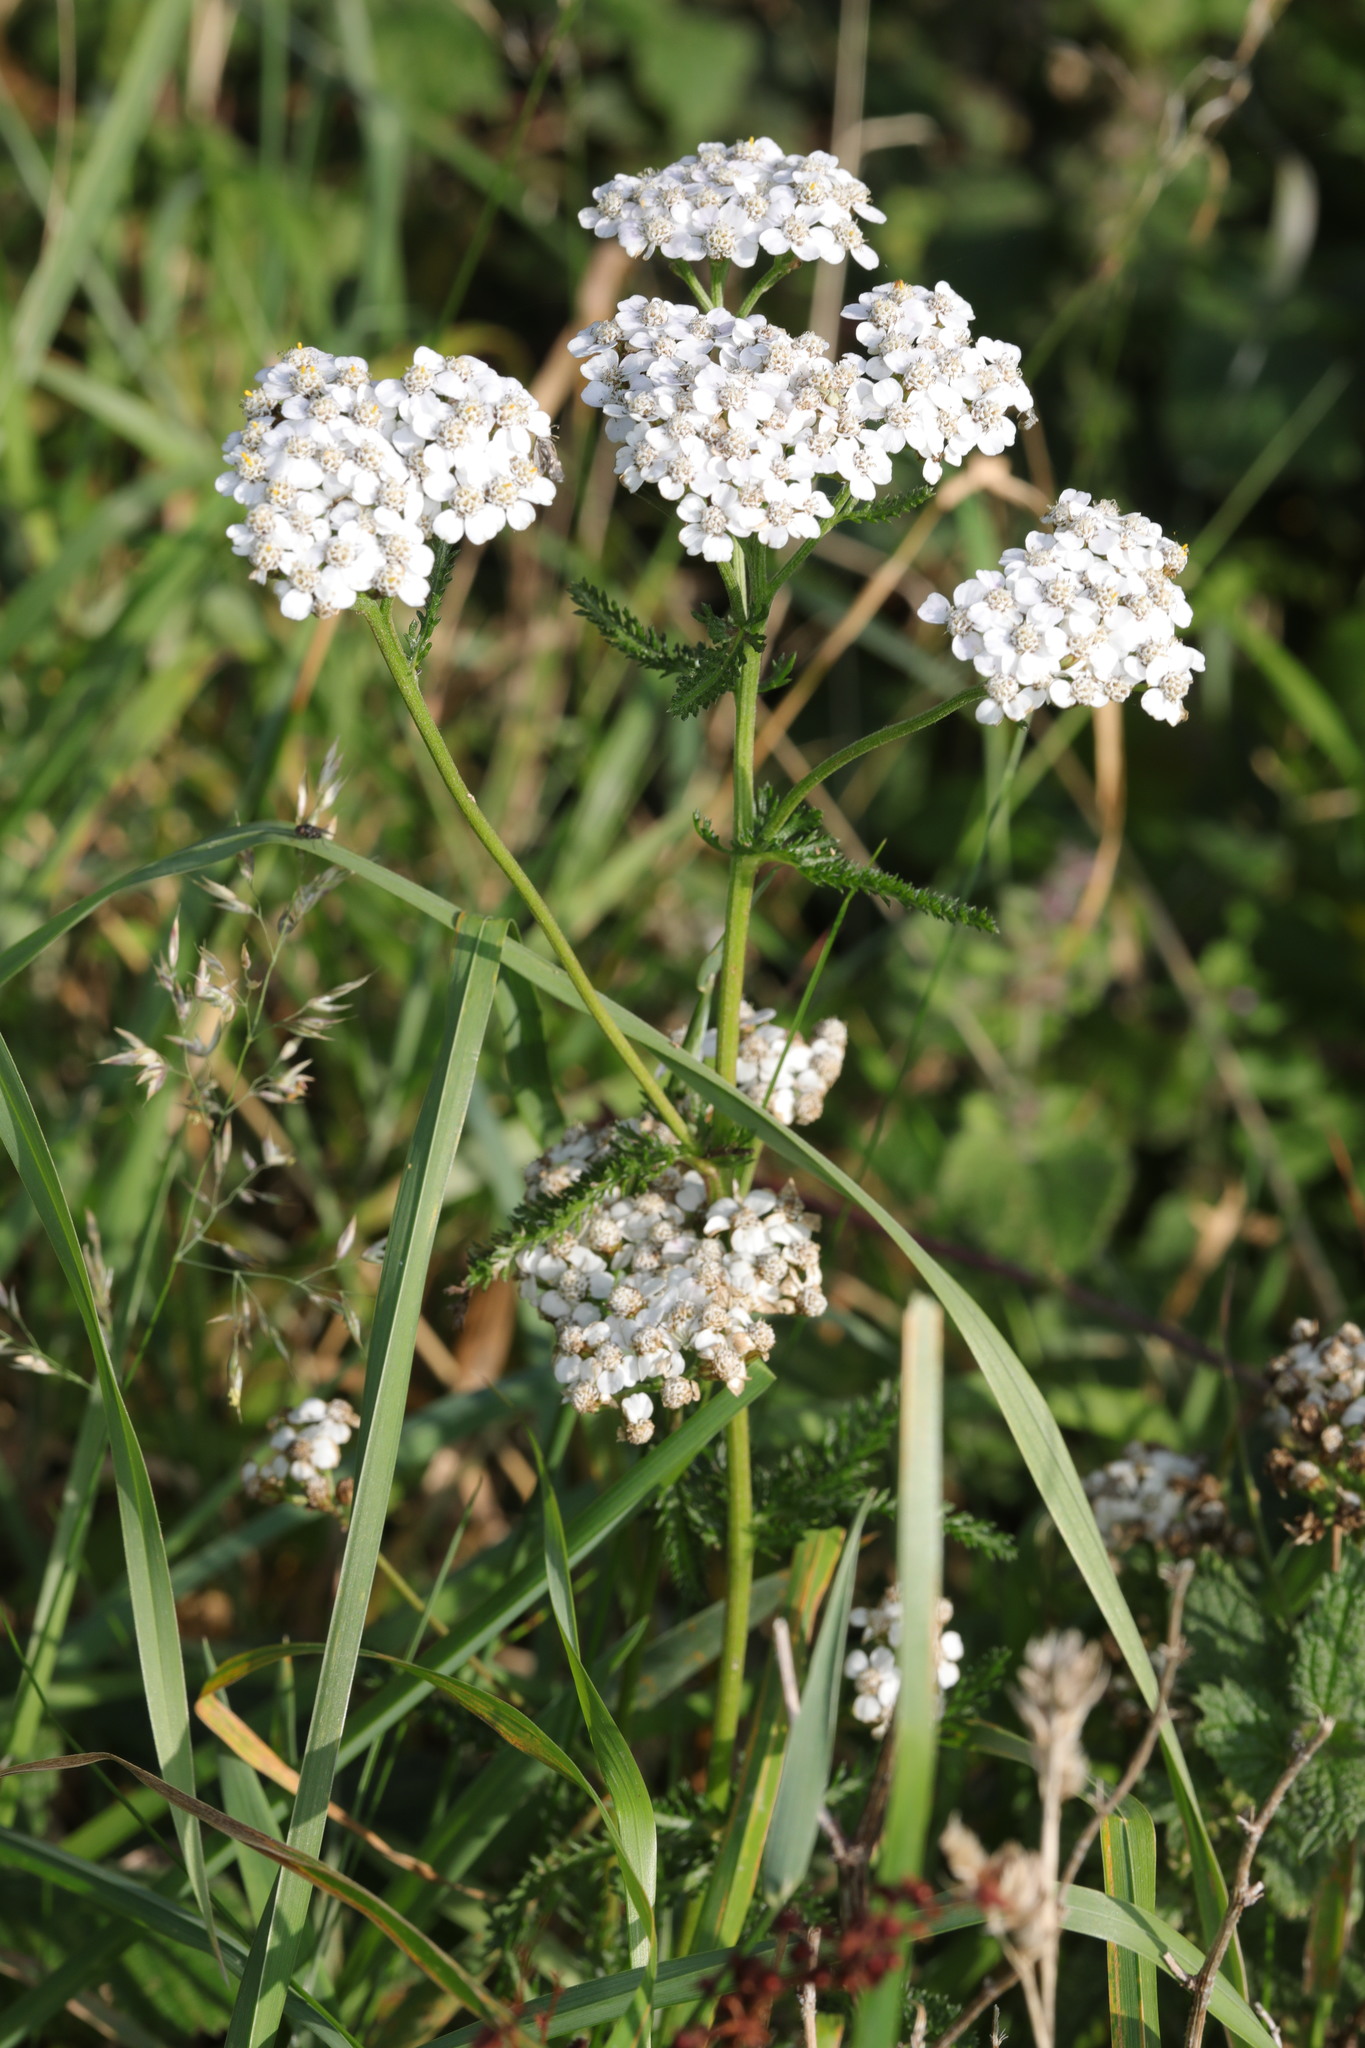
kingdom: Plantae
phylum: Tracheophyta
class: Magnoliopsida
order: Asterales
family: Asteraceae
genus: Achillea
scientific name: Achillea millefolium
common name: Yarrow
